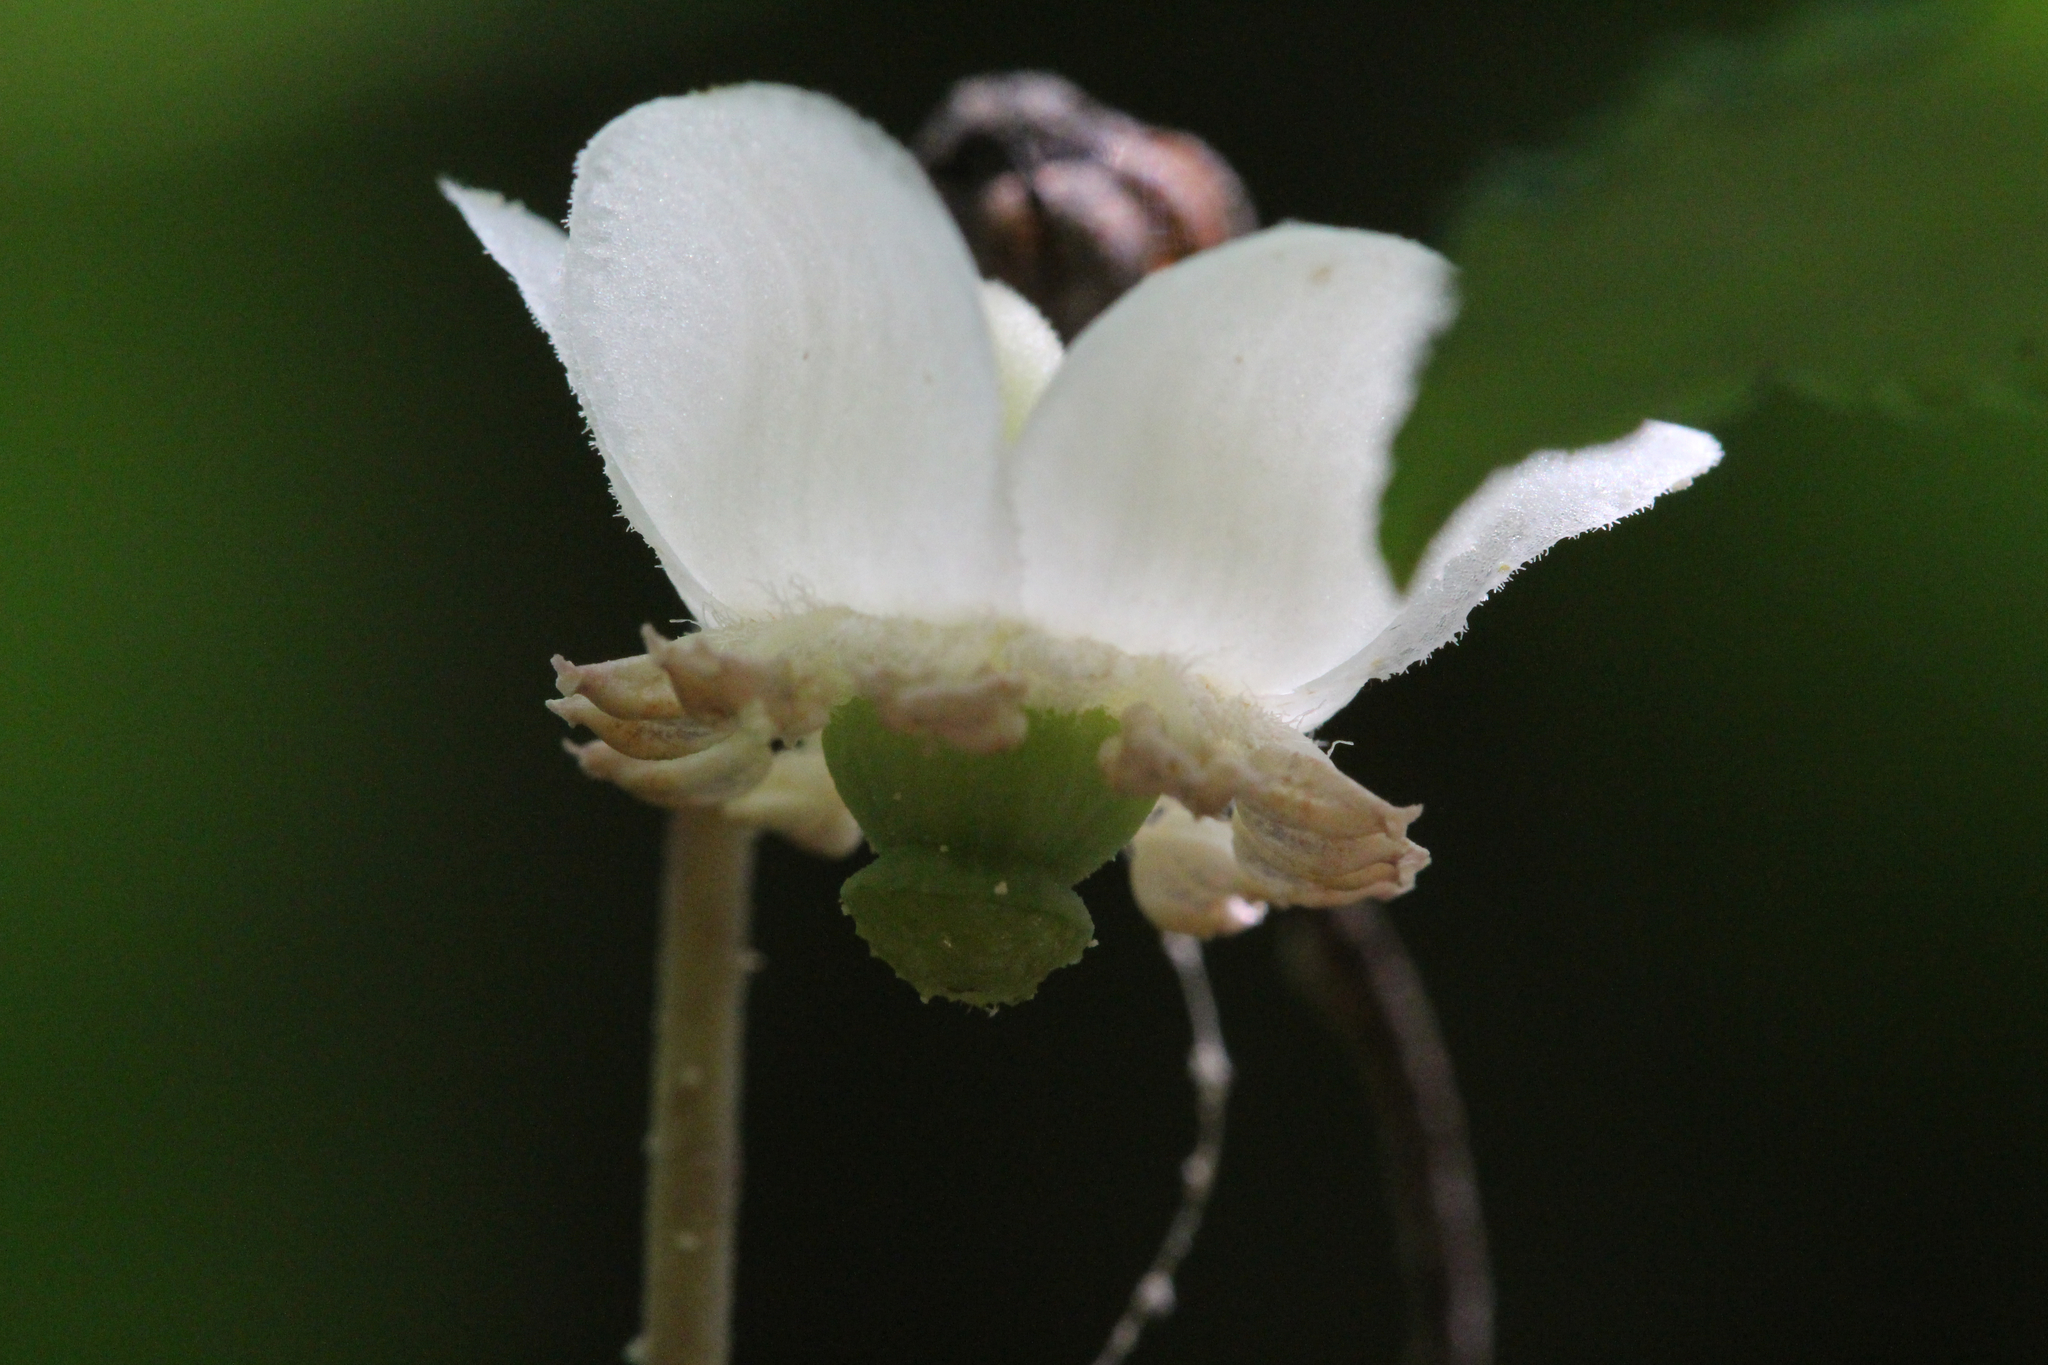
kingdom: Plantae
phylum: Tracheophyta
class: Magnoliopsida
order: Ericales
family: Ericaceae
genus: Chimaphila
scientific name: Chimaphila maculata
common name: Spotted pipsissewa
